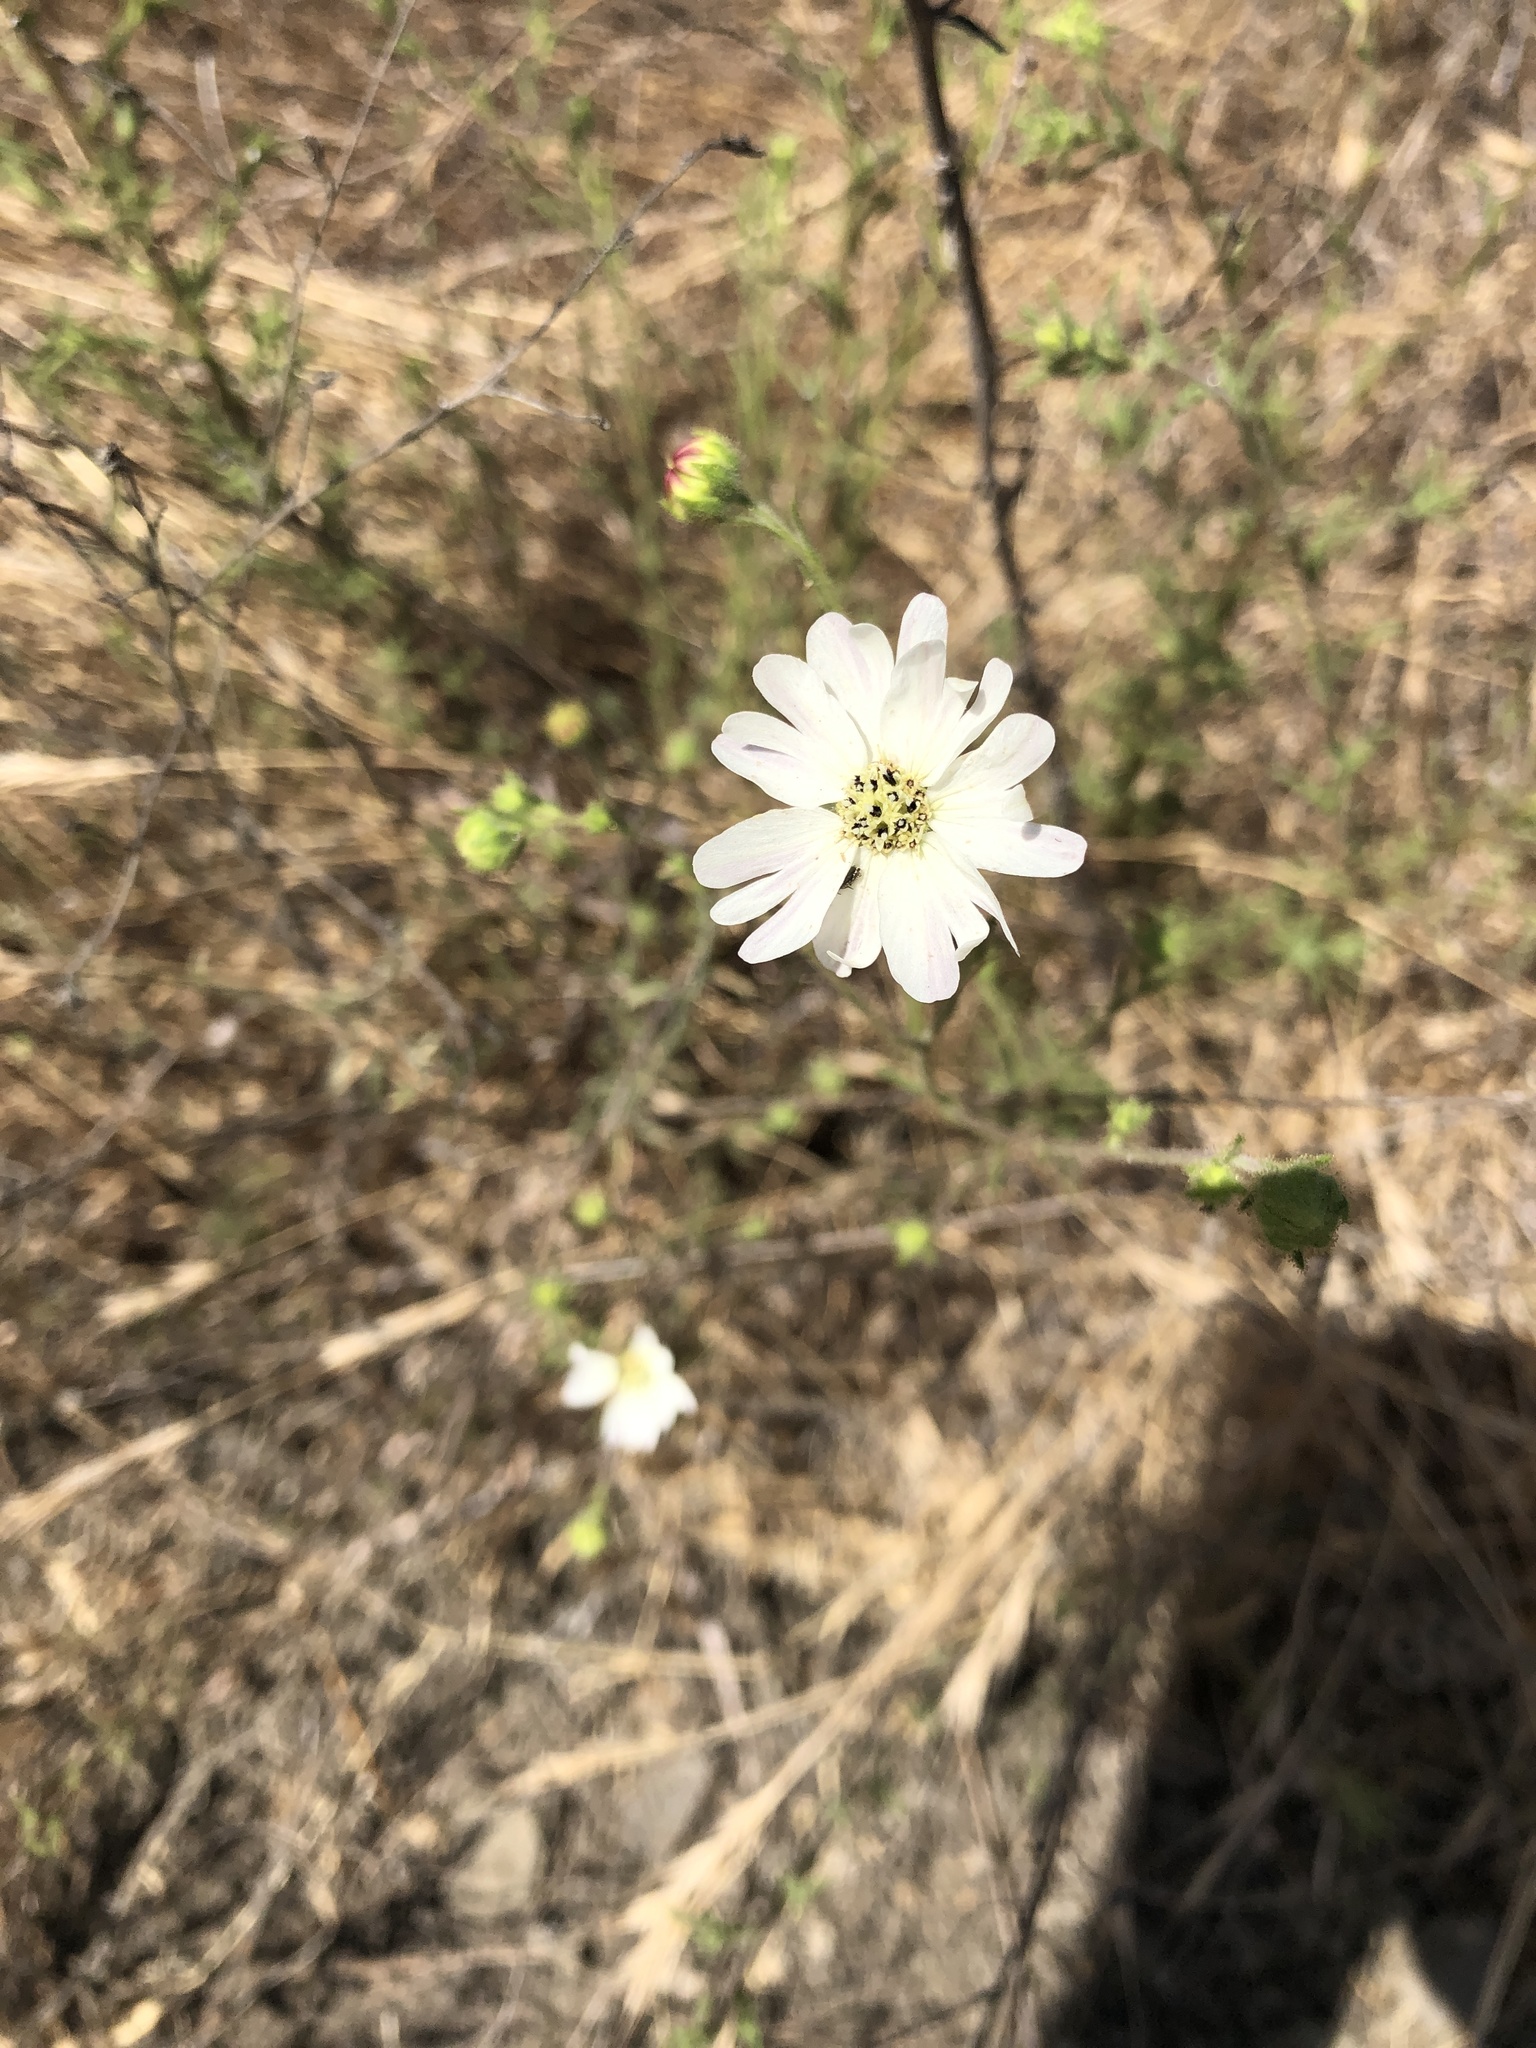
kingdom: Plantae
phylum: Tracheophyta
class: Magnoliopsida
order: Asterales
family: Asteraceae
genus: Hemizonia
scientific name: Hemizonia congesta
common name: Hayfield tarweed
